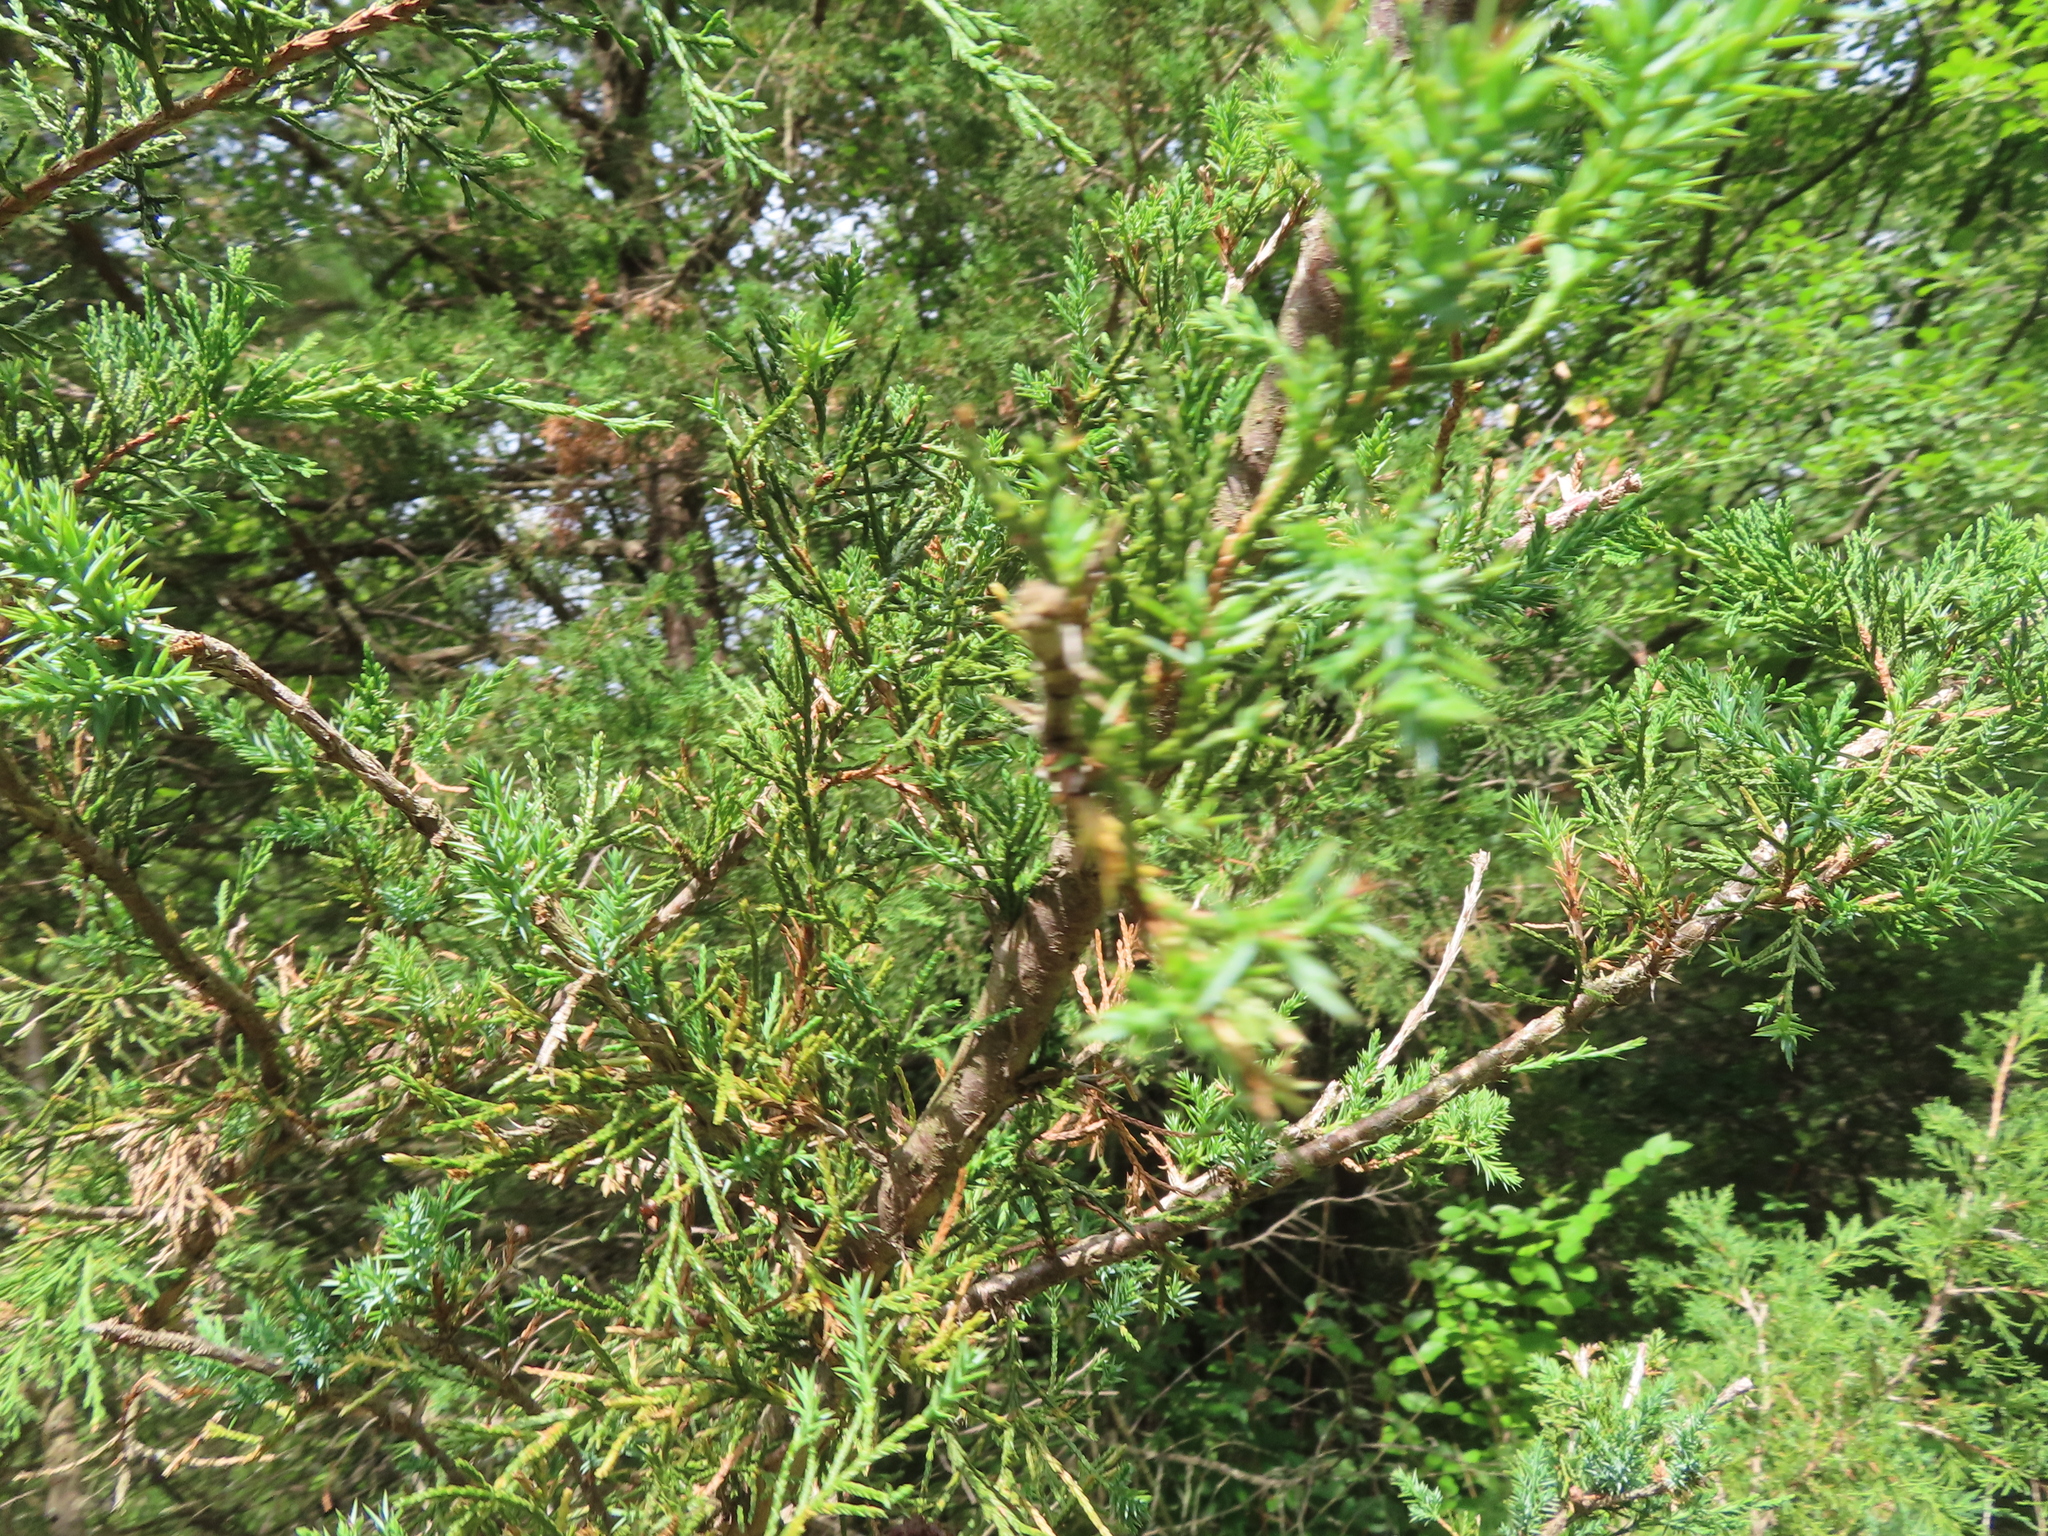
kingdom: Plantae
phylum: Tracheophyta
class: Pinopsida
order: Pinales
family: Cupressaceae
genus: Juniperus
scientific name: Juniperus virginiana
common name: Red juniper
